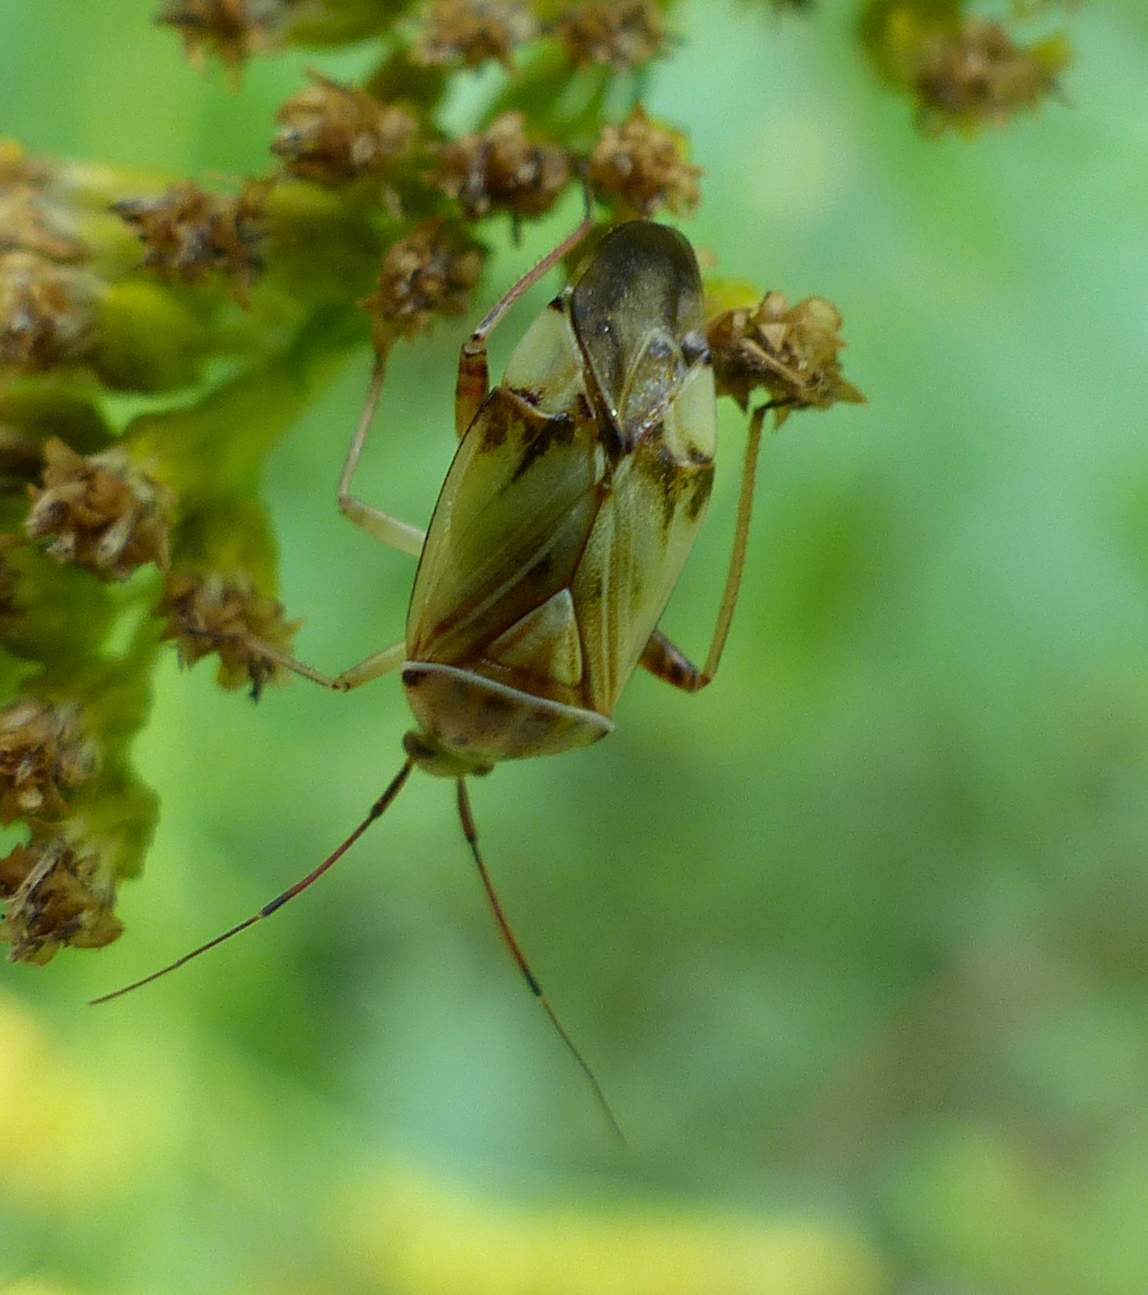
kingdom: Animalia
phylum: Arthropoda
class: Insecta
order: Hemiptera
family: Miridae
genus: Lygus
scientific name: Lygus vanduzeei
